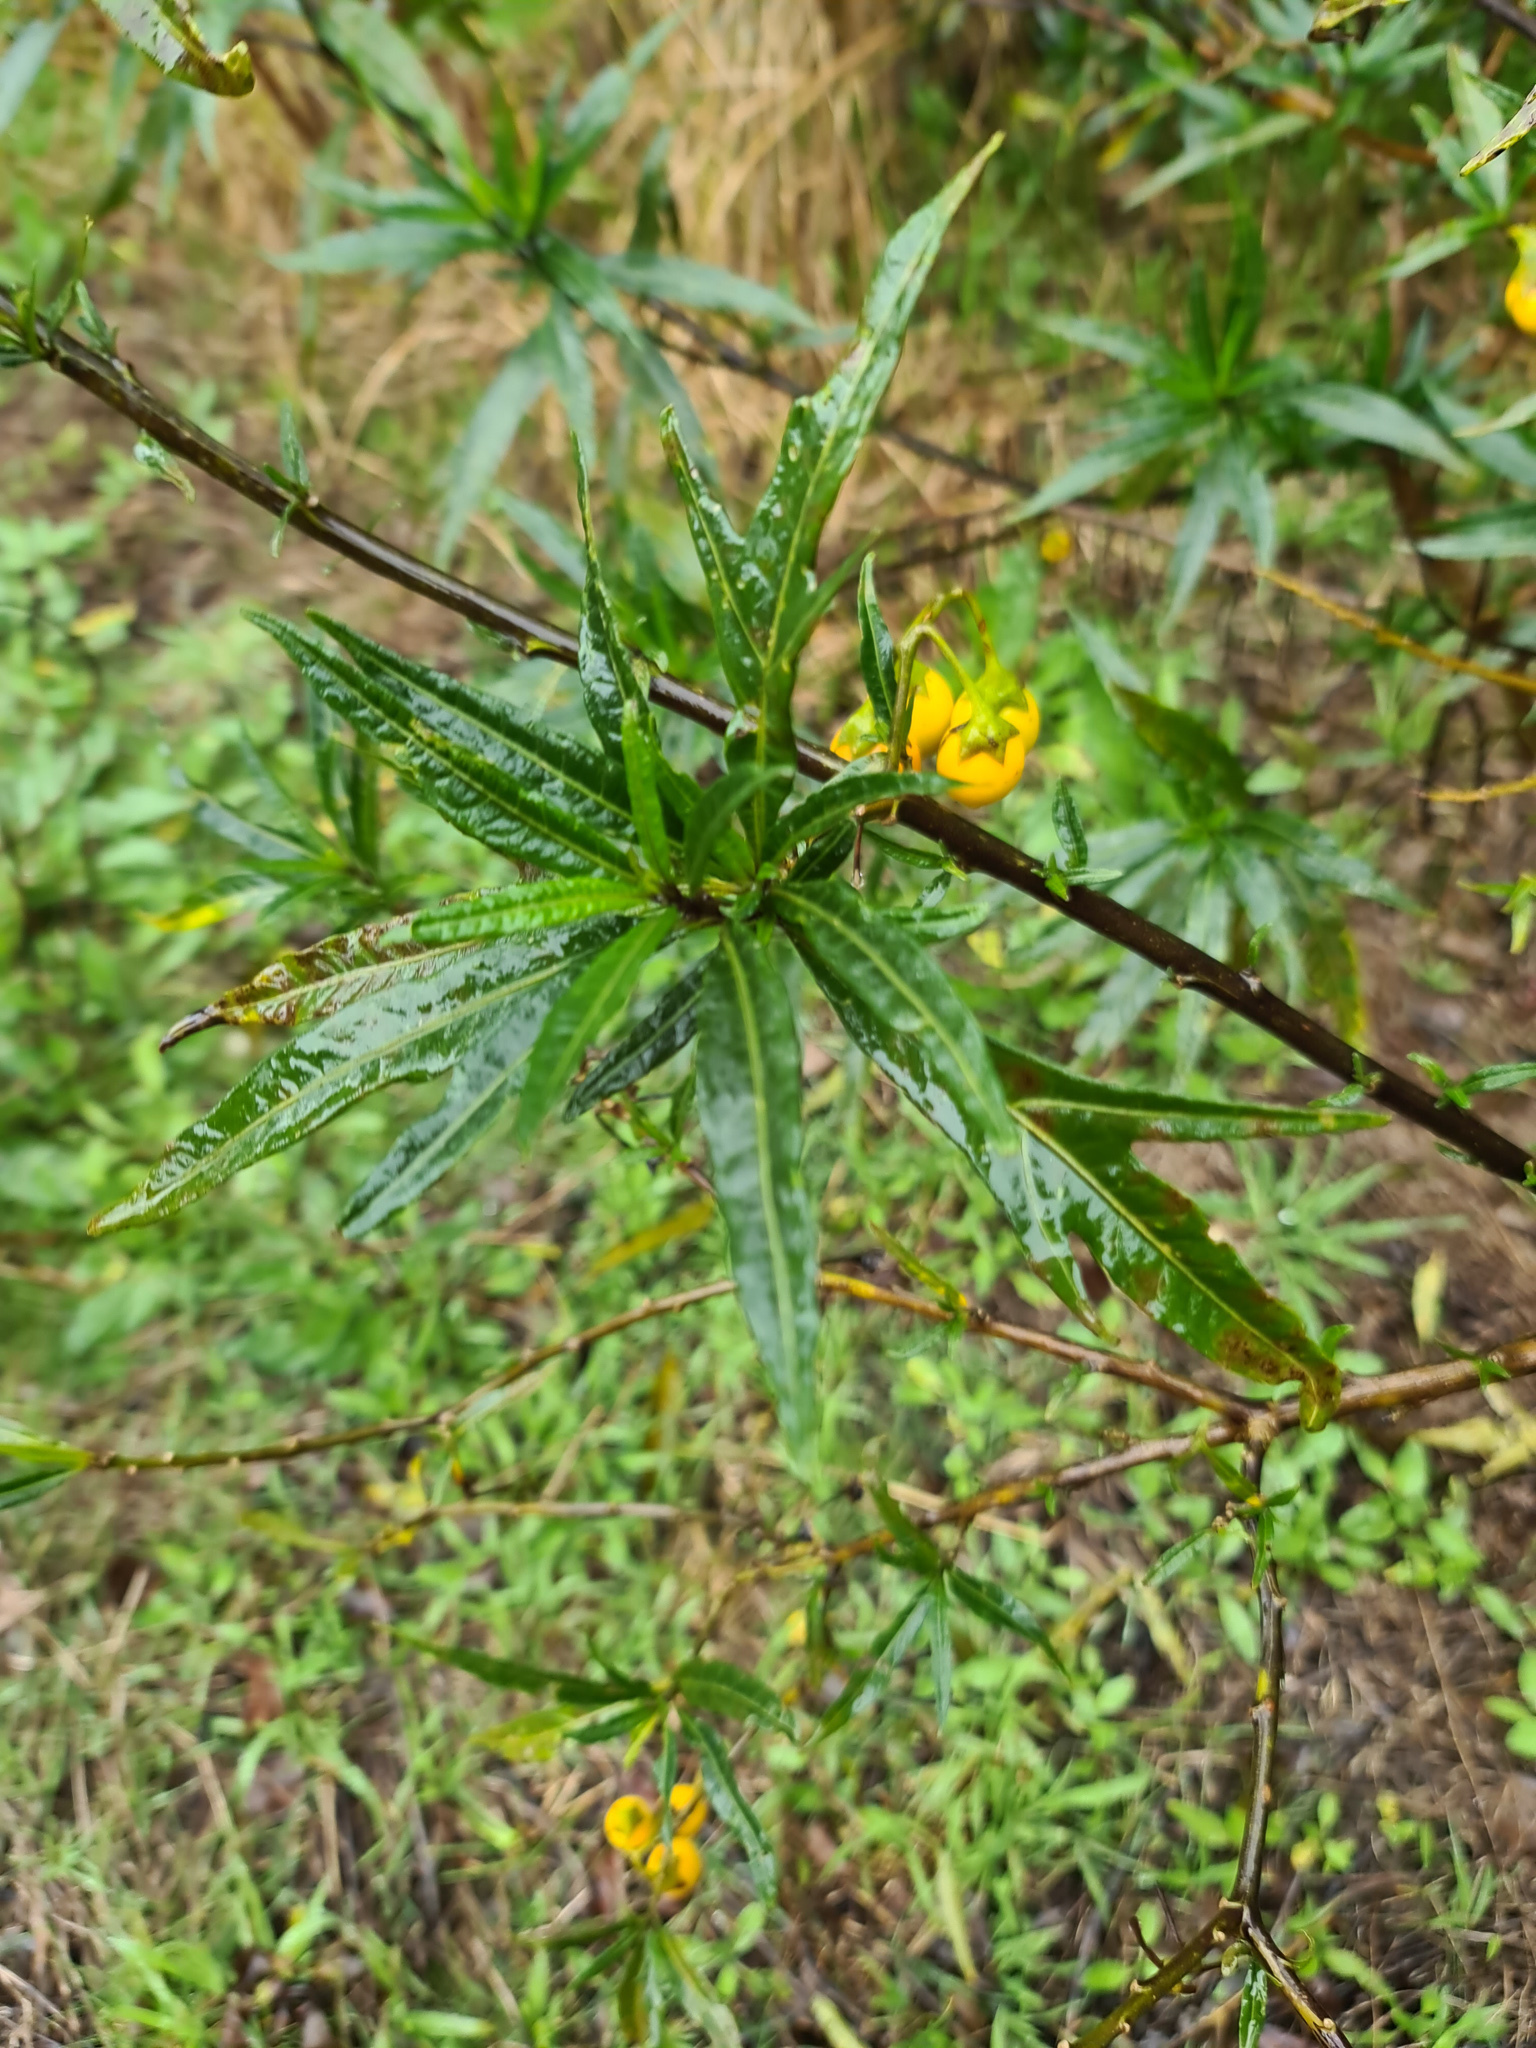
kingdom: Plantae
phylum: Tracheophyta
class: Magnoliopsida
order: Solanales
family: Solanaceae
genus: Solanum
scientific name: Solanum laciniatum
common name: Kangaroo-apple
